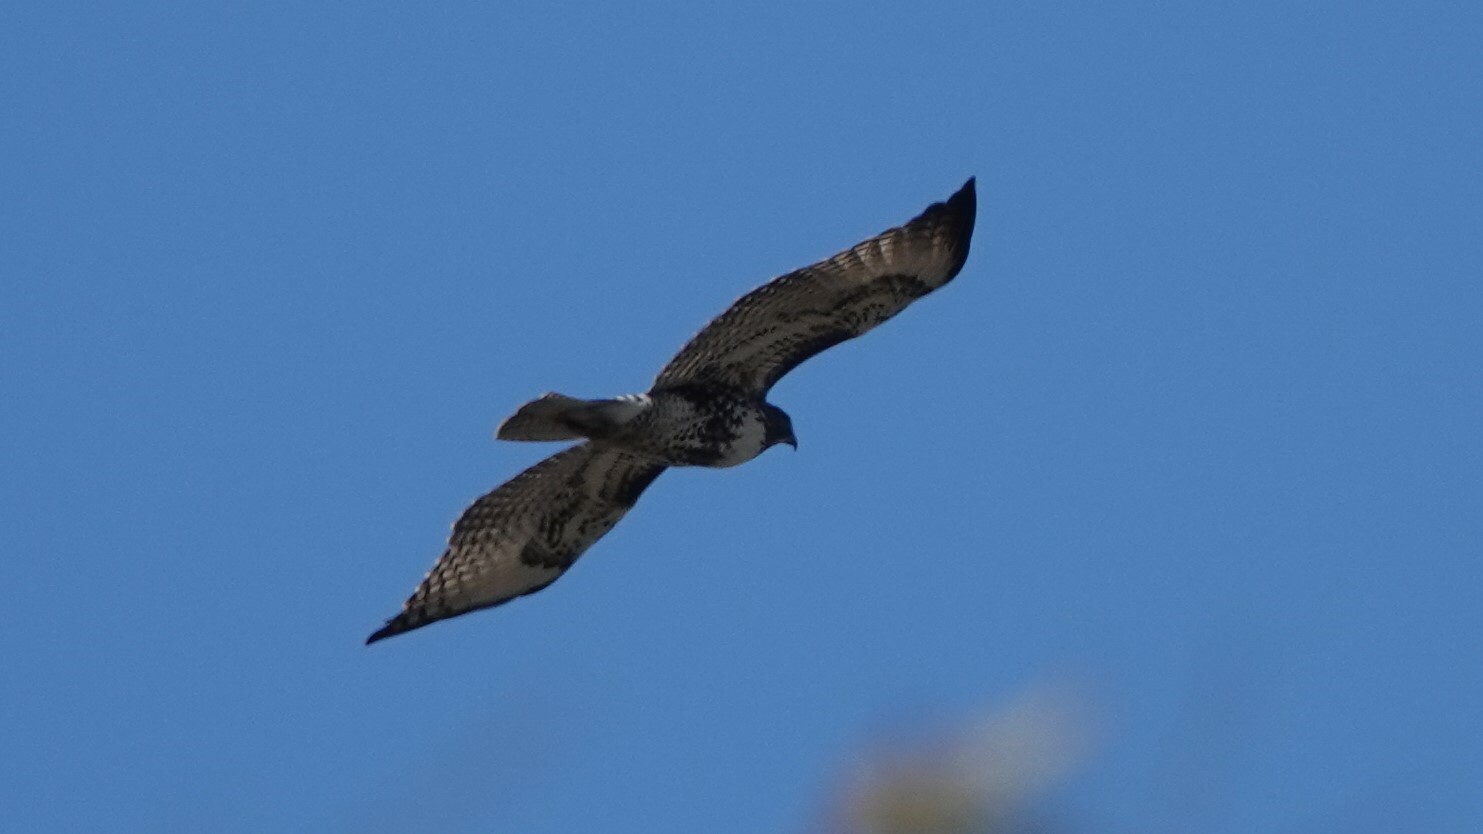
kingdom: Animalia
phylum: Chordata
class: Aves
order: Accipitriformes
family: Accipitridae
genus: Buteo
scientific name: Buteo jamaicensis
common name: Red-tailed hawk
